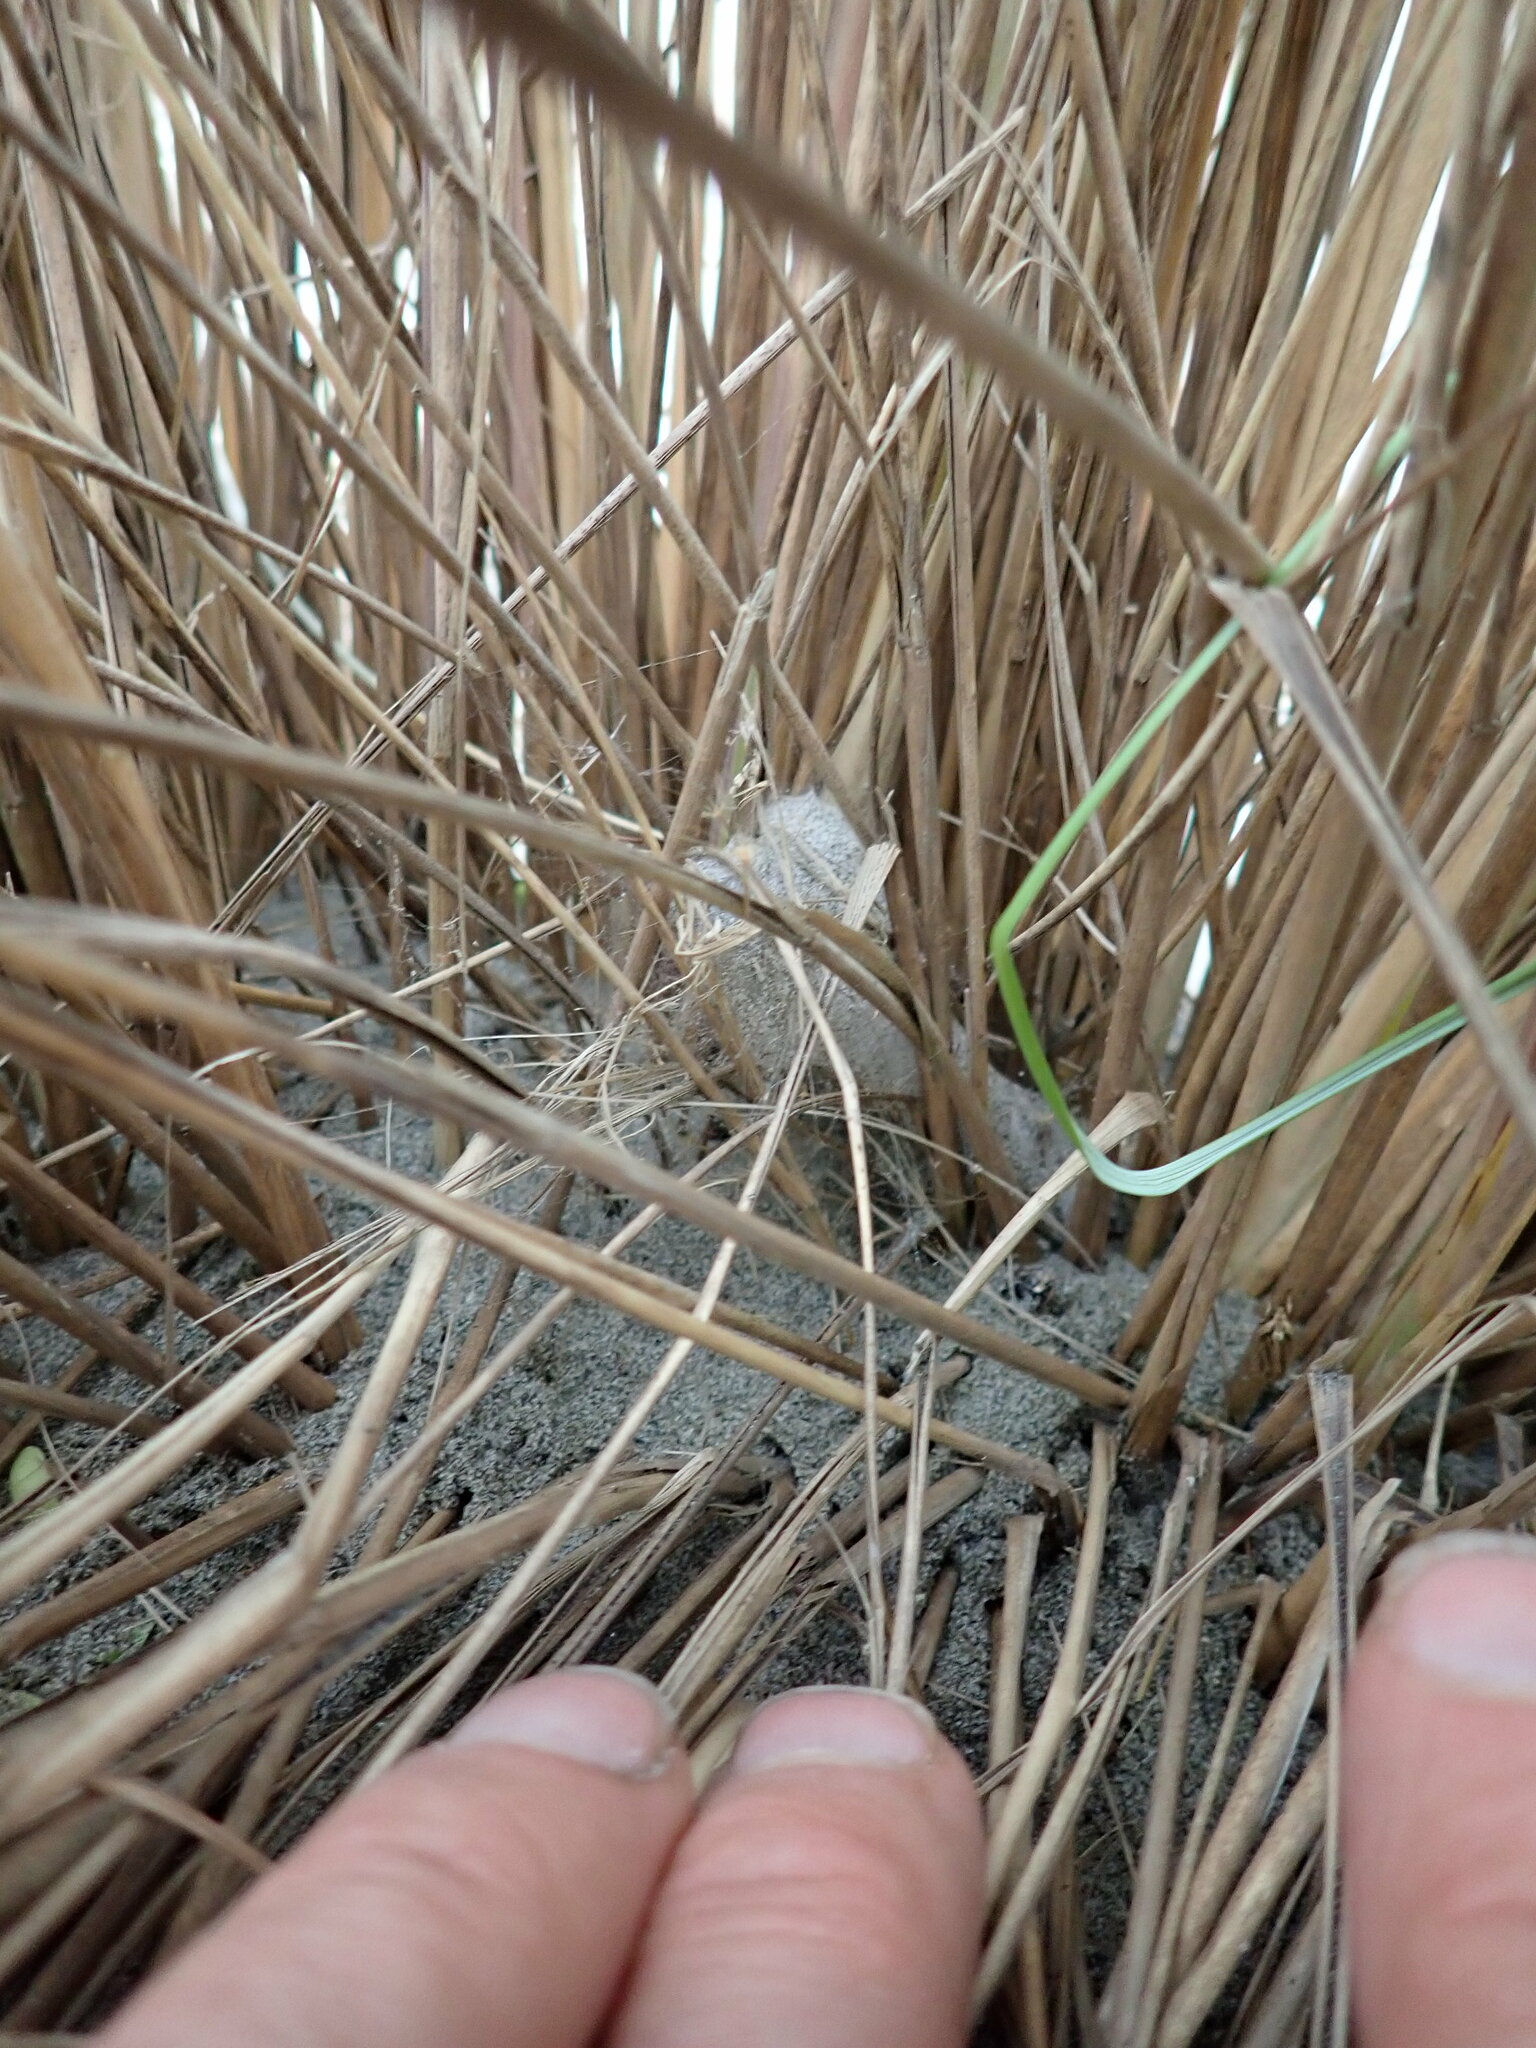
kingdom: Animalia
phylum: Arthropoda
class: Arachnida
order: Araneae
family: Theridiidae
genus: Latrodectus
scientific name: Latrodectus katipo
